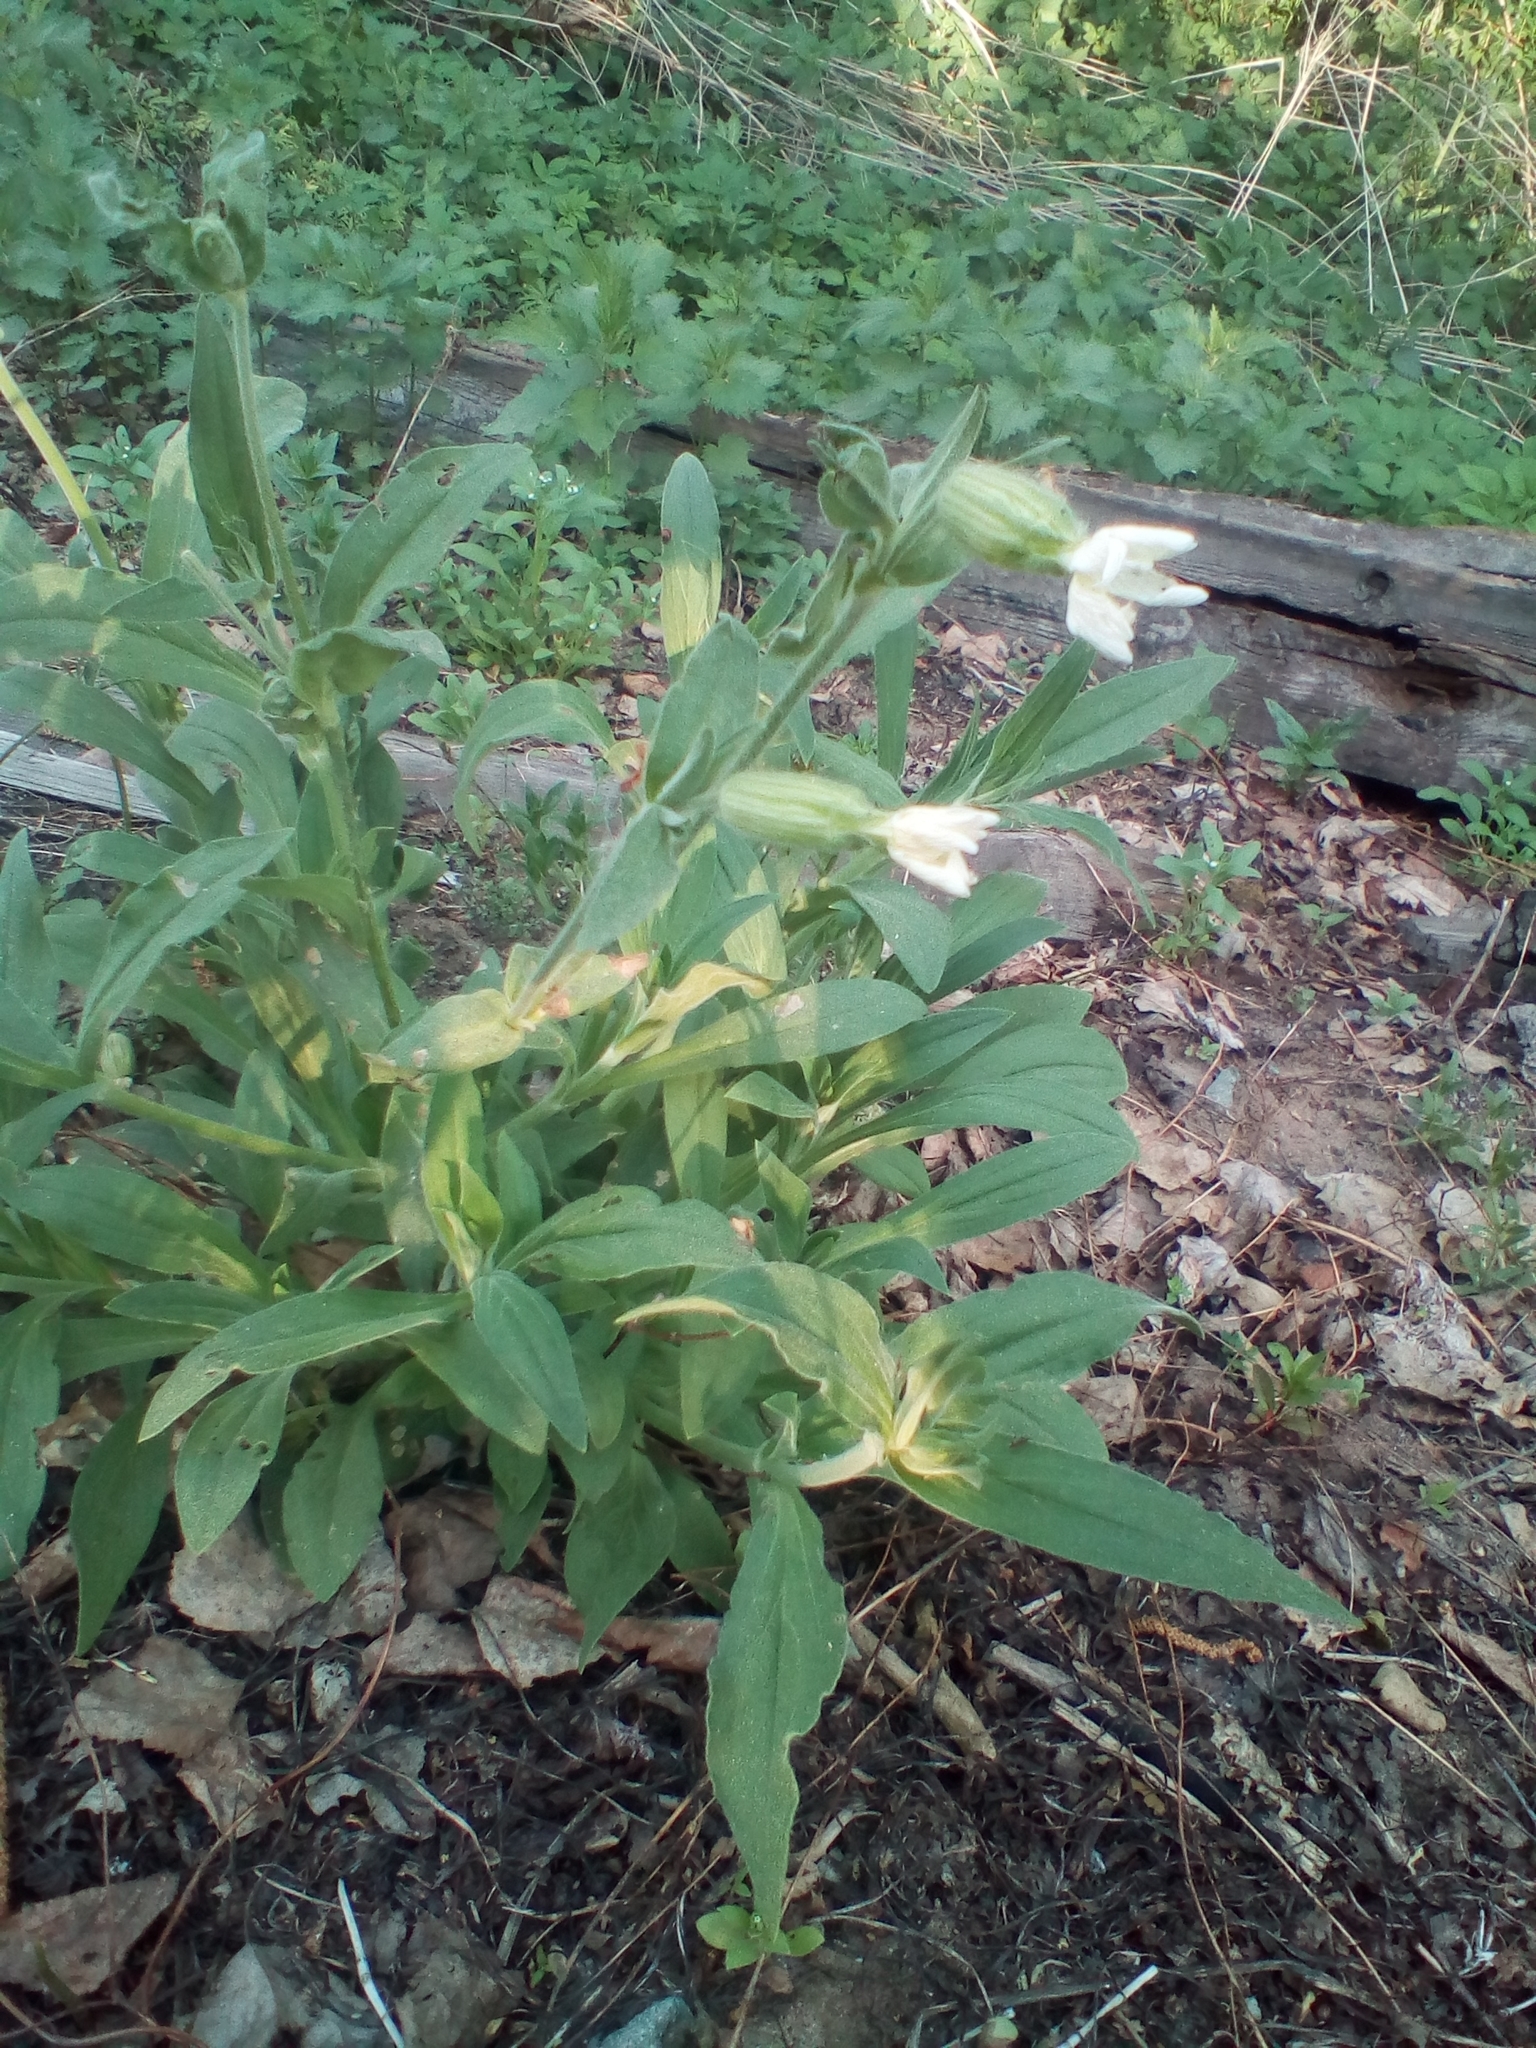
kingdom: Plantae
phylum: Tracheophyta
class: Magnoliopsida
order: Caryophyllales
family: Caryophyllaceae
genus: Silene
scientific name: Silene latifolia
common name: White campion
